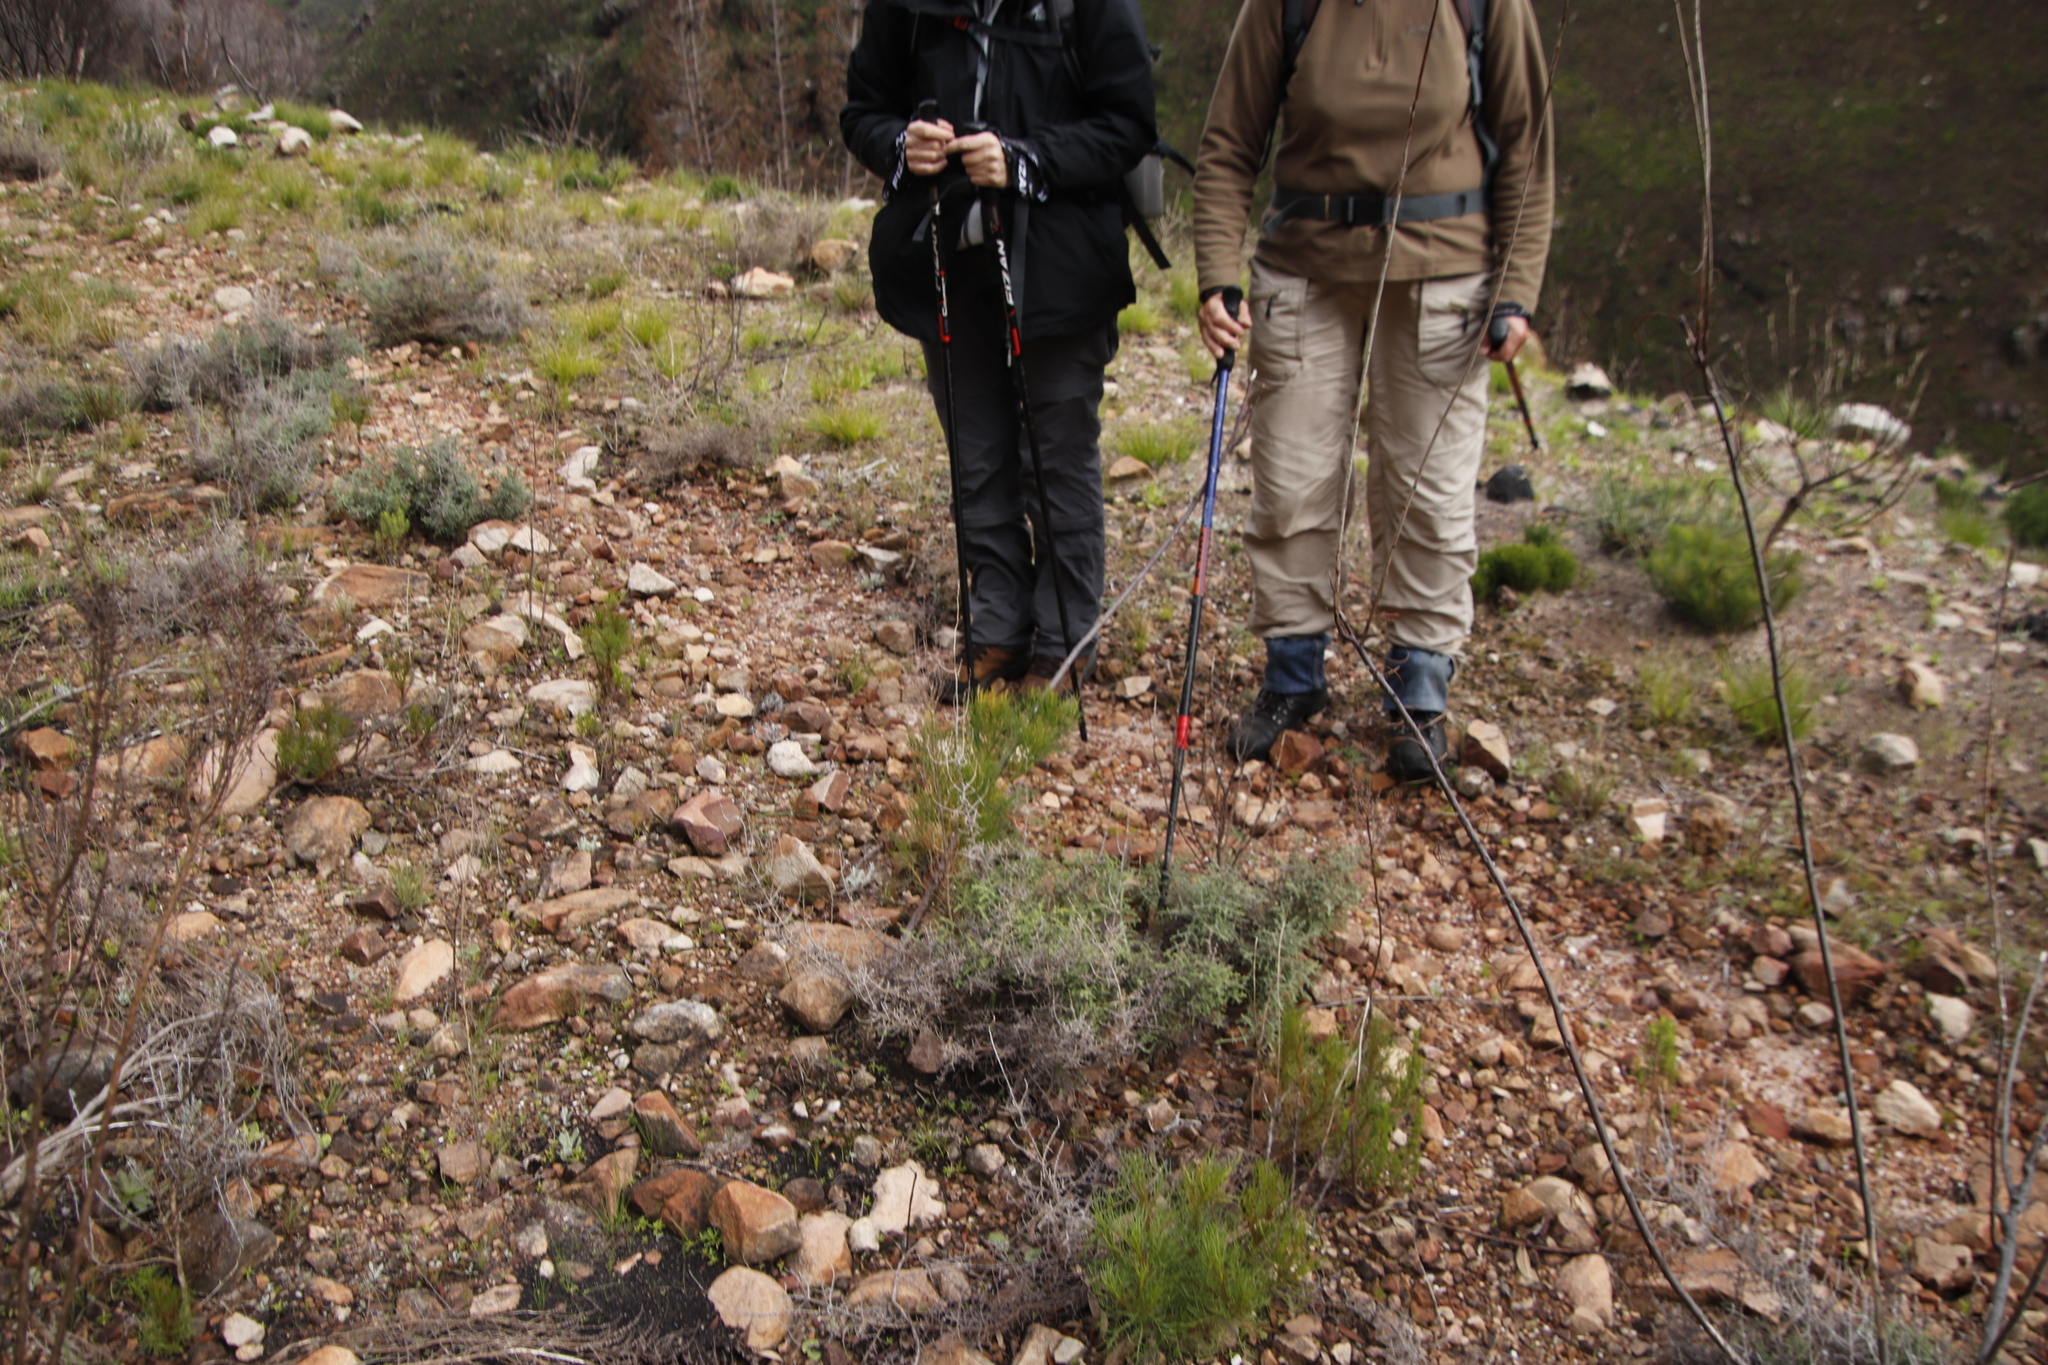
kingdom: Plantae
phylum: Tracheophyta
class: Magnoliopsida
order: Proteales
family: Proteaceae
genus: Serruria
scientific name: Serruria florida
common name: Blushing bride
